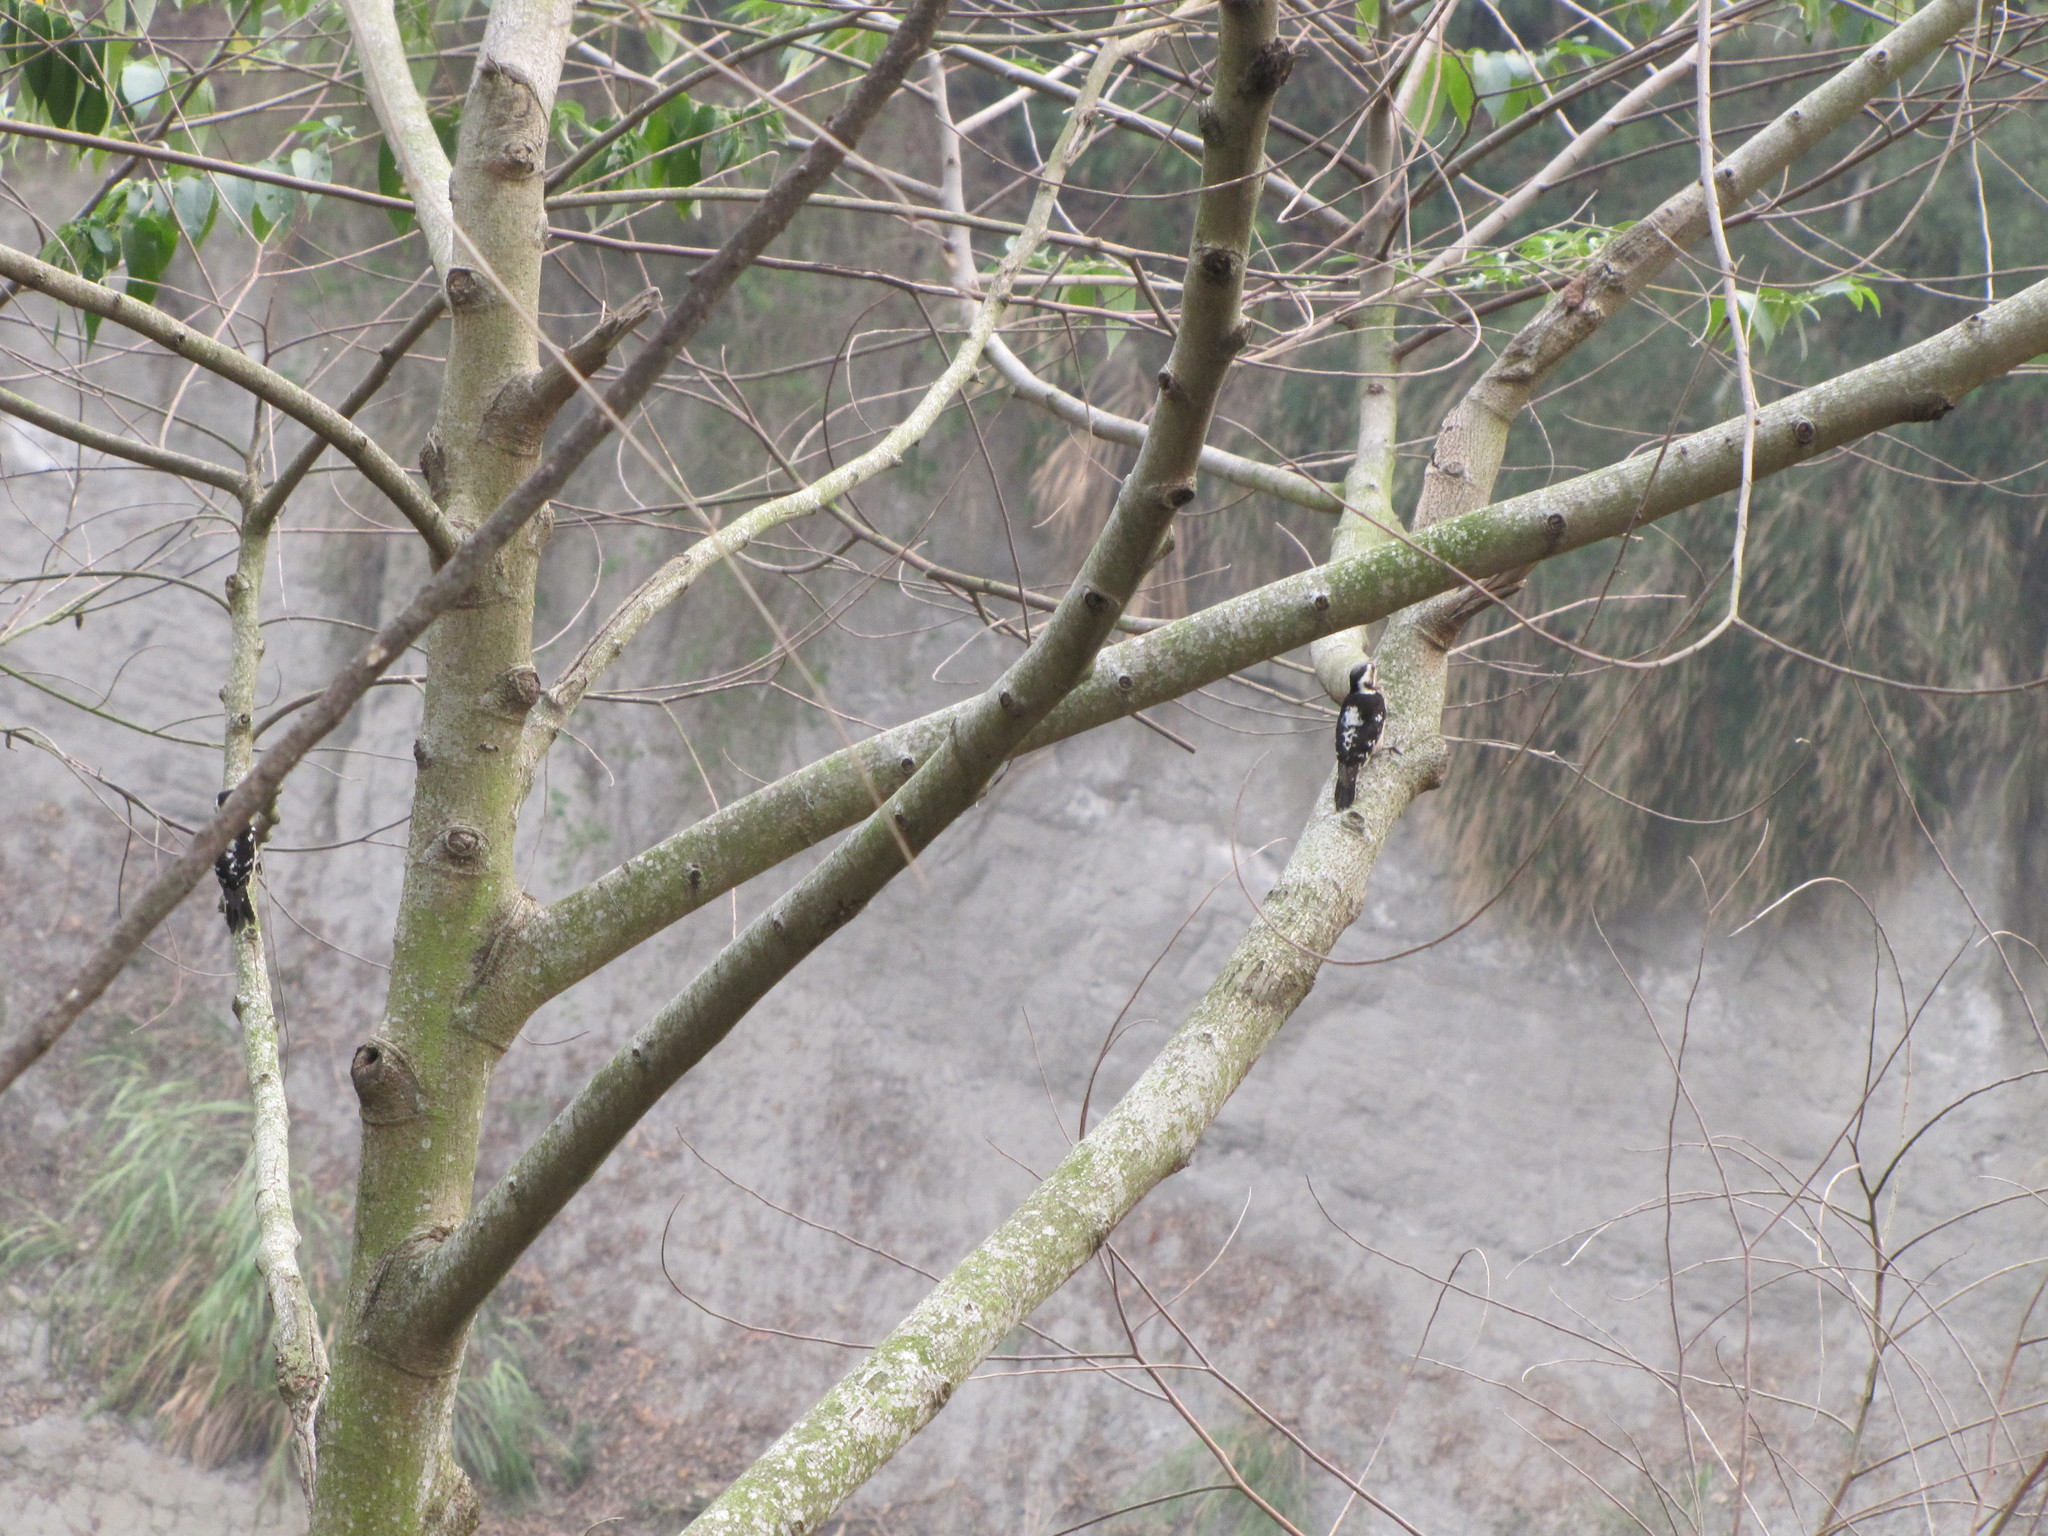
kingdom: Animalia
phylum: Chordata
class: Aves
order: Piciformes
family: Picidae
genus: Yungipicus
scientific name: Yungipicus canicapillus
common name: Grey-capped pygmy woodpecker
